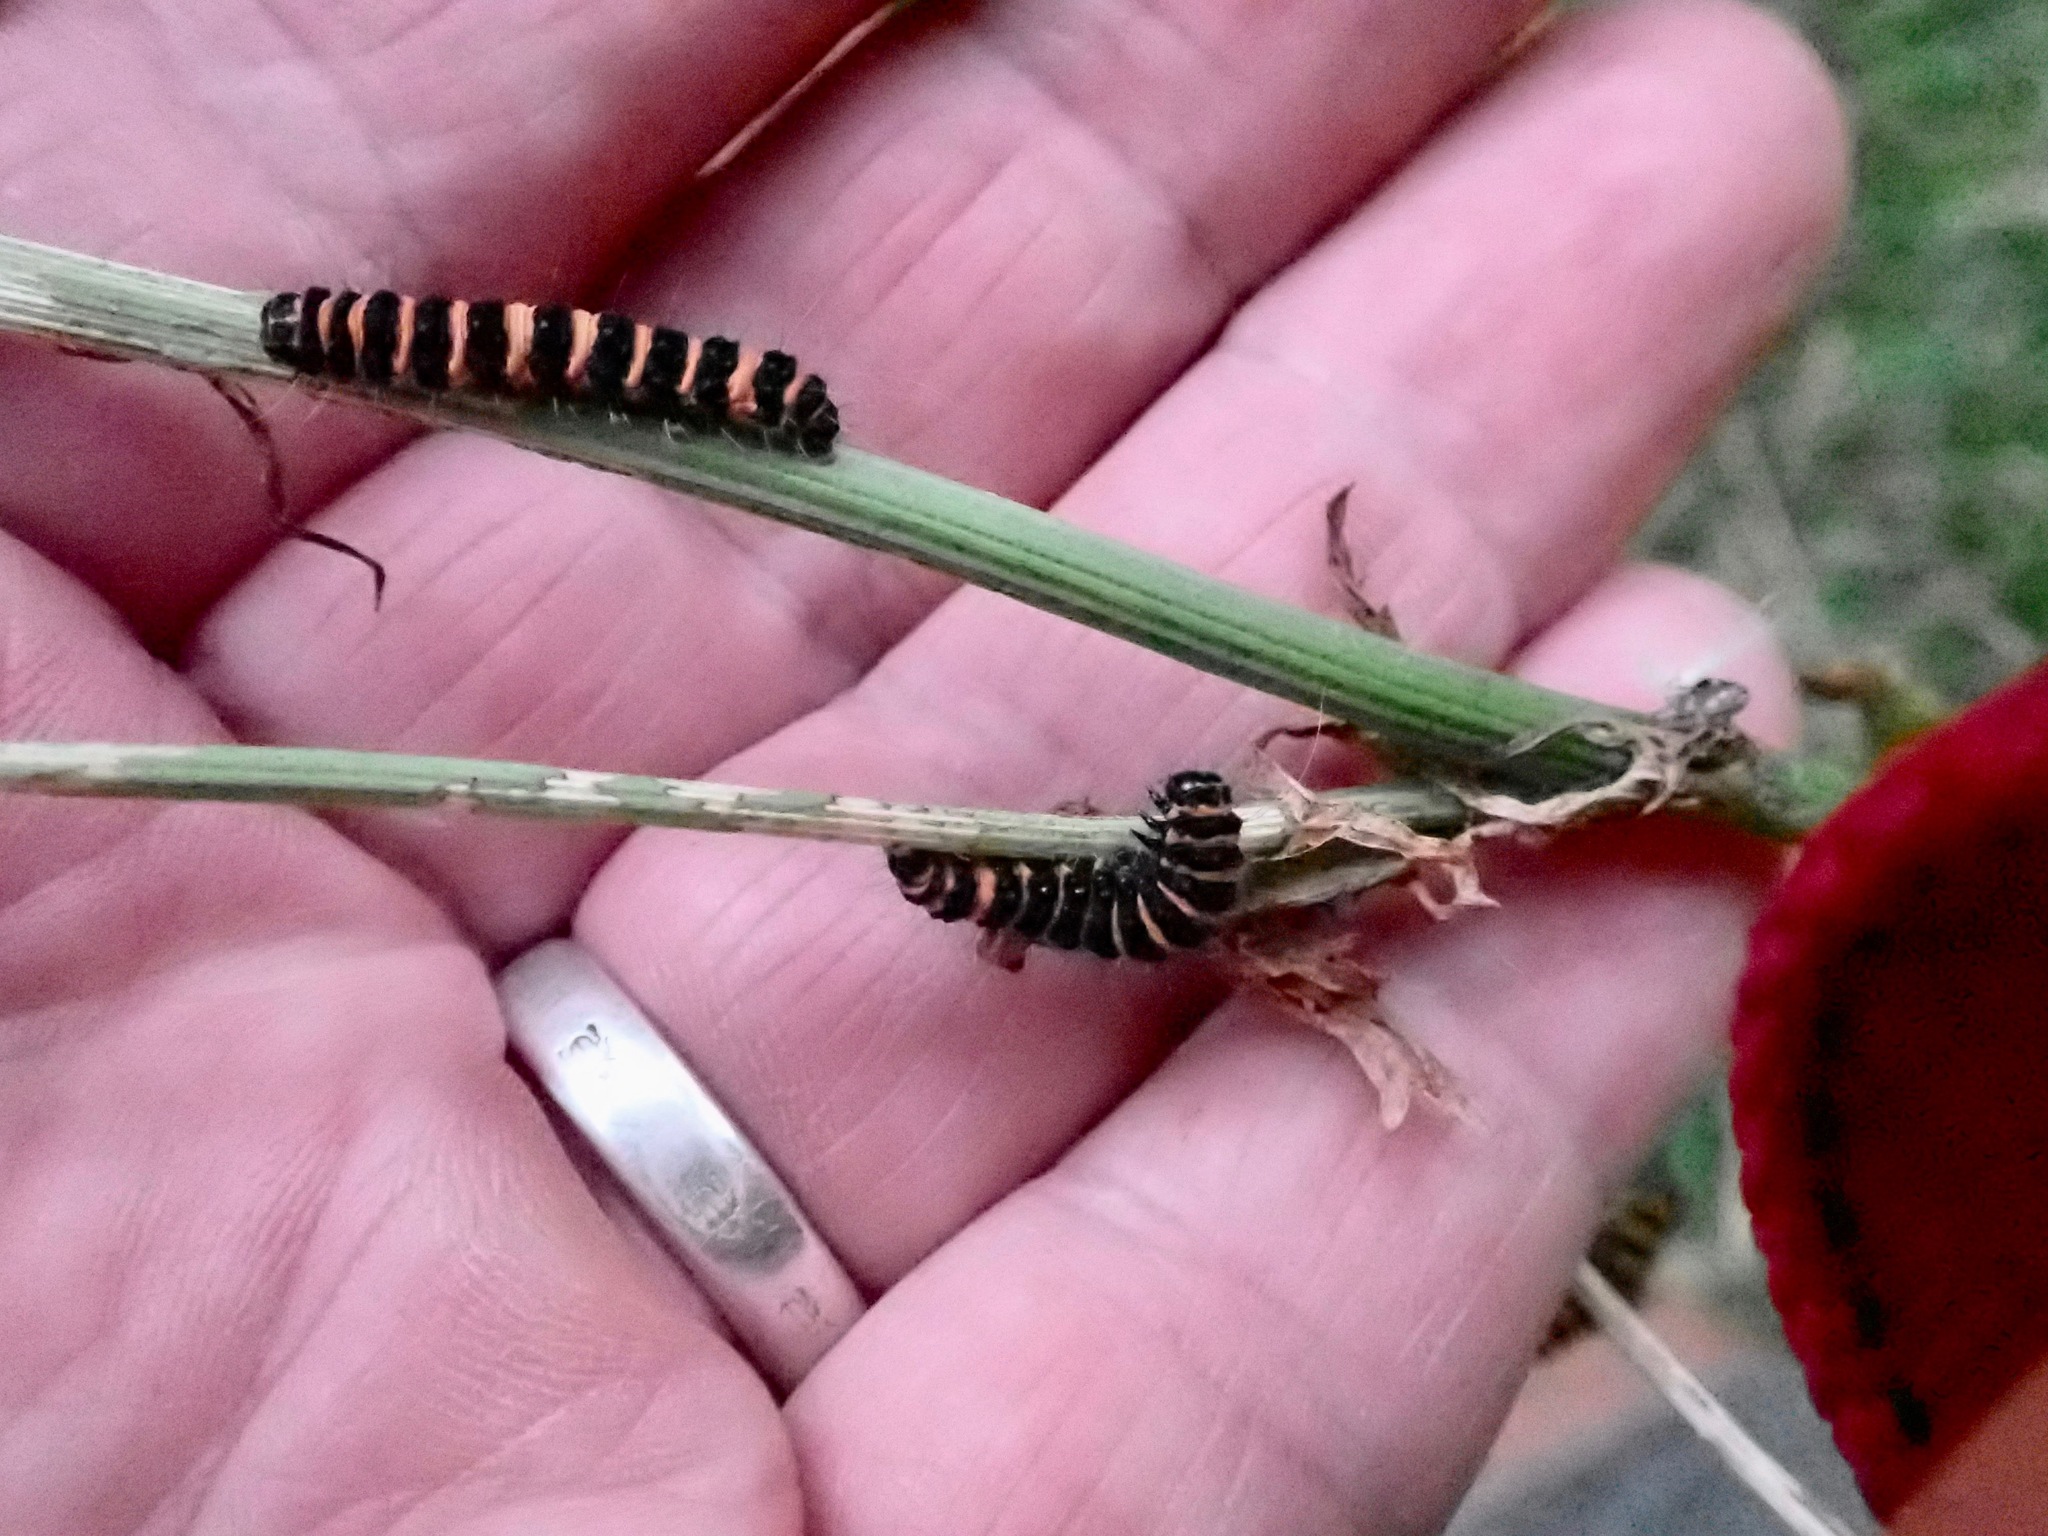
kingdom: Animalia
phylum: Arthropoda
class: Insecta
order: Lepidoptera
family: Erebidae
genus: Tyria
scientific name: Tyria jacobaeae
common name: Cinnabar
